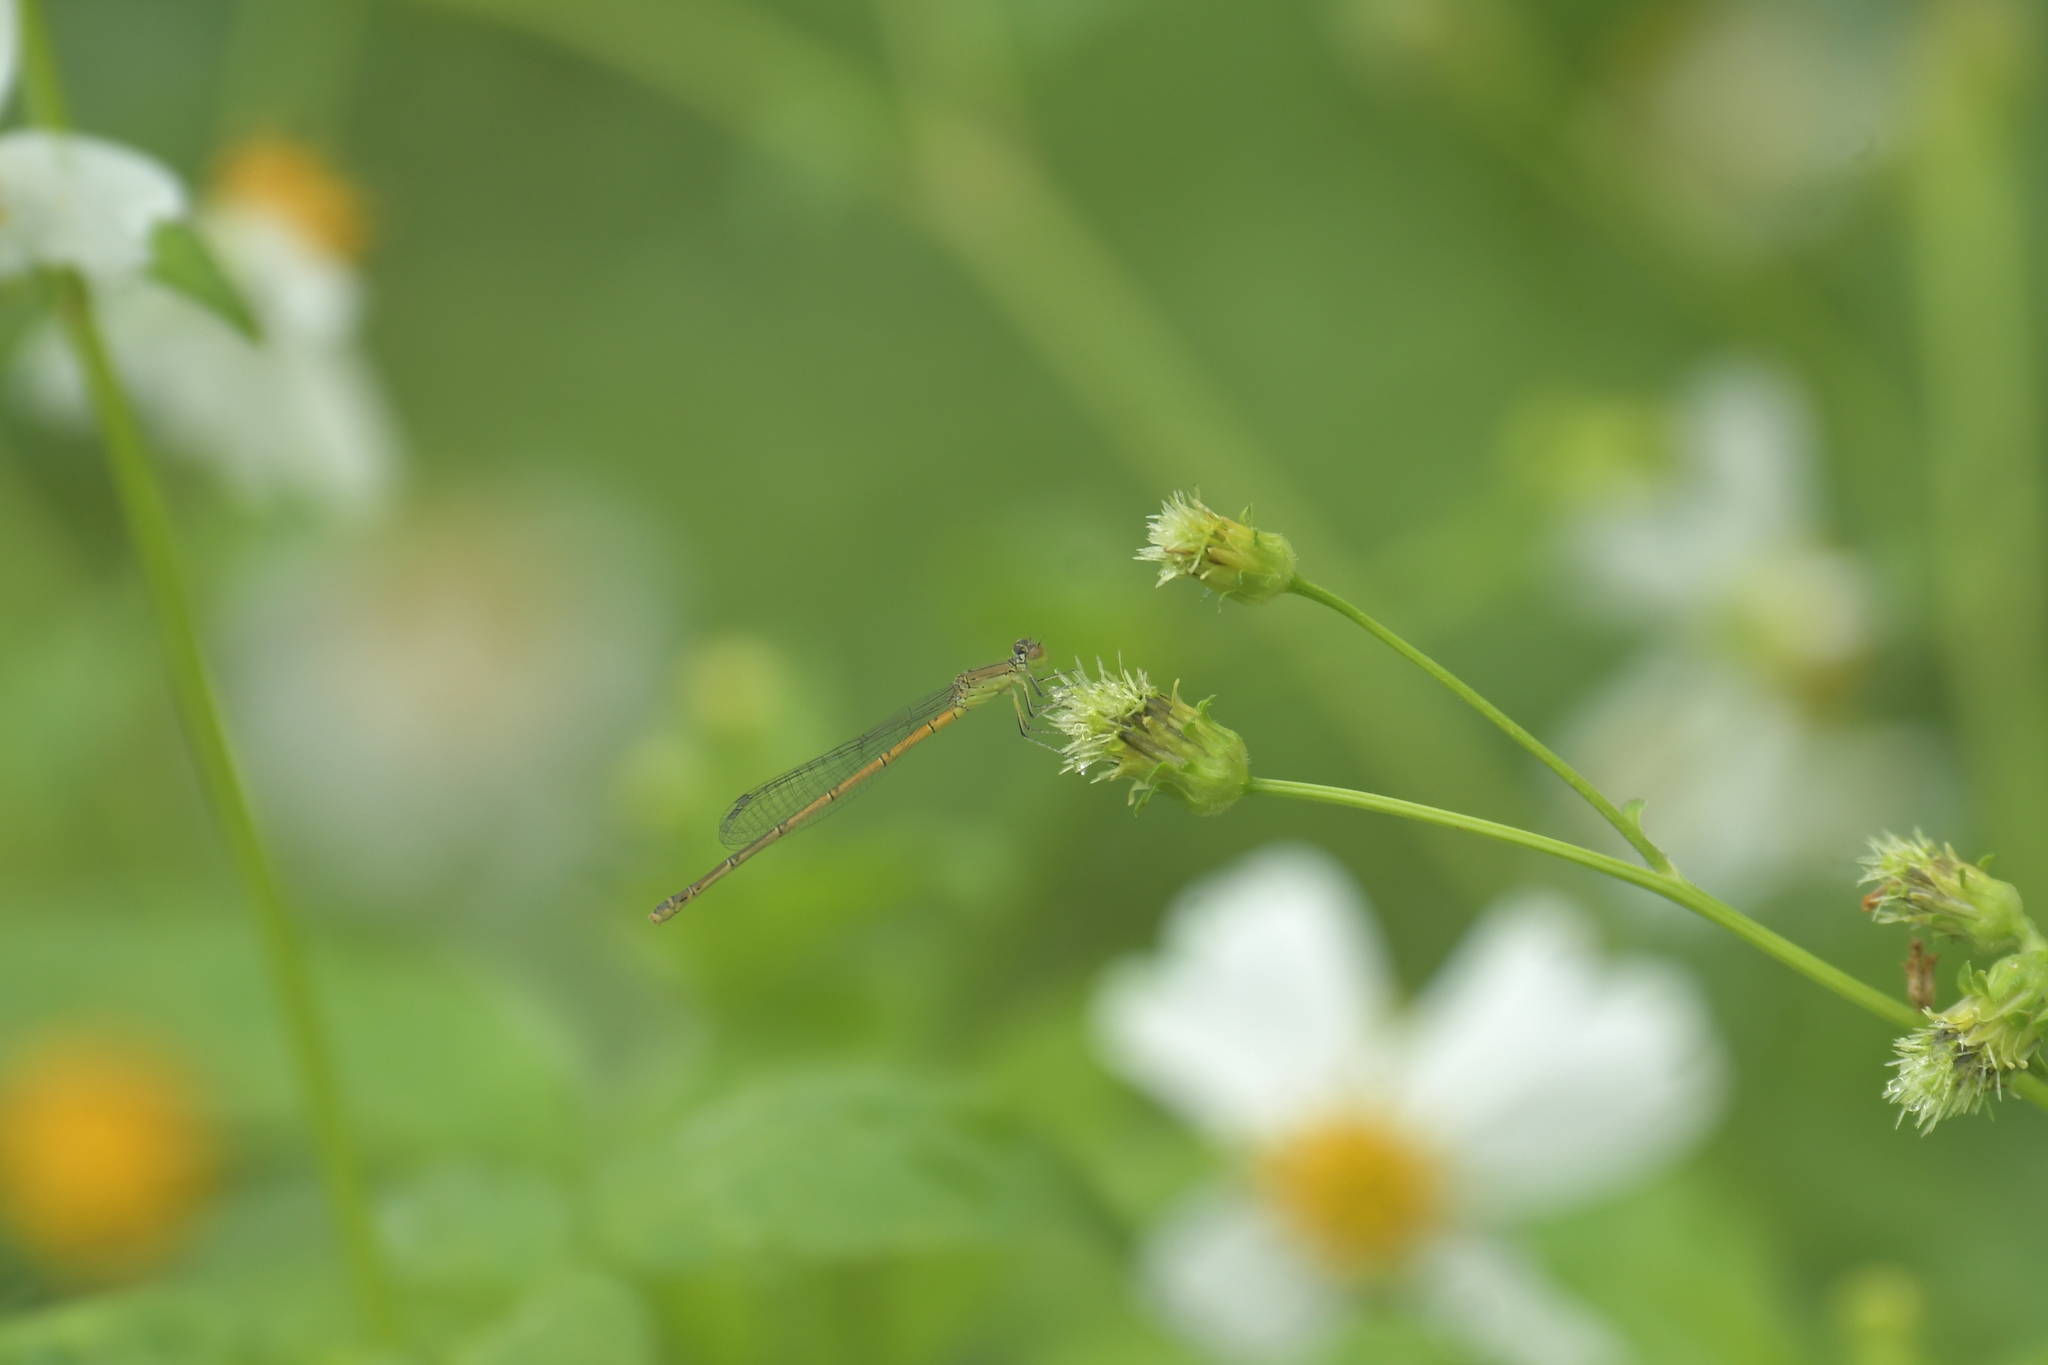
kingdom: Animalia
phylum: Arthropoda
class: Insecta
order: Odonata
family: Coenagrionidae
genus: Paracercion
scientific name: Paracercion melanotum
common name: Eastern lilysquatter
